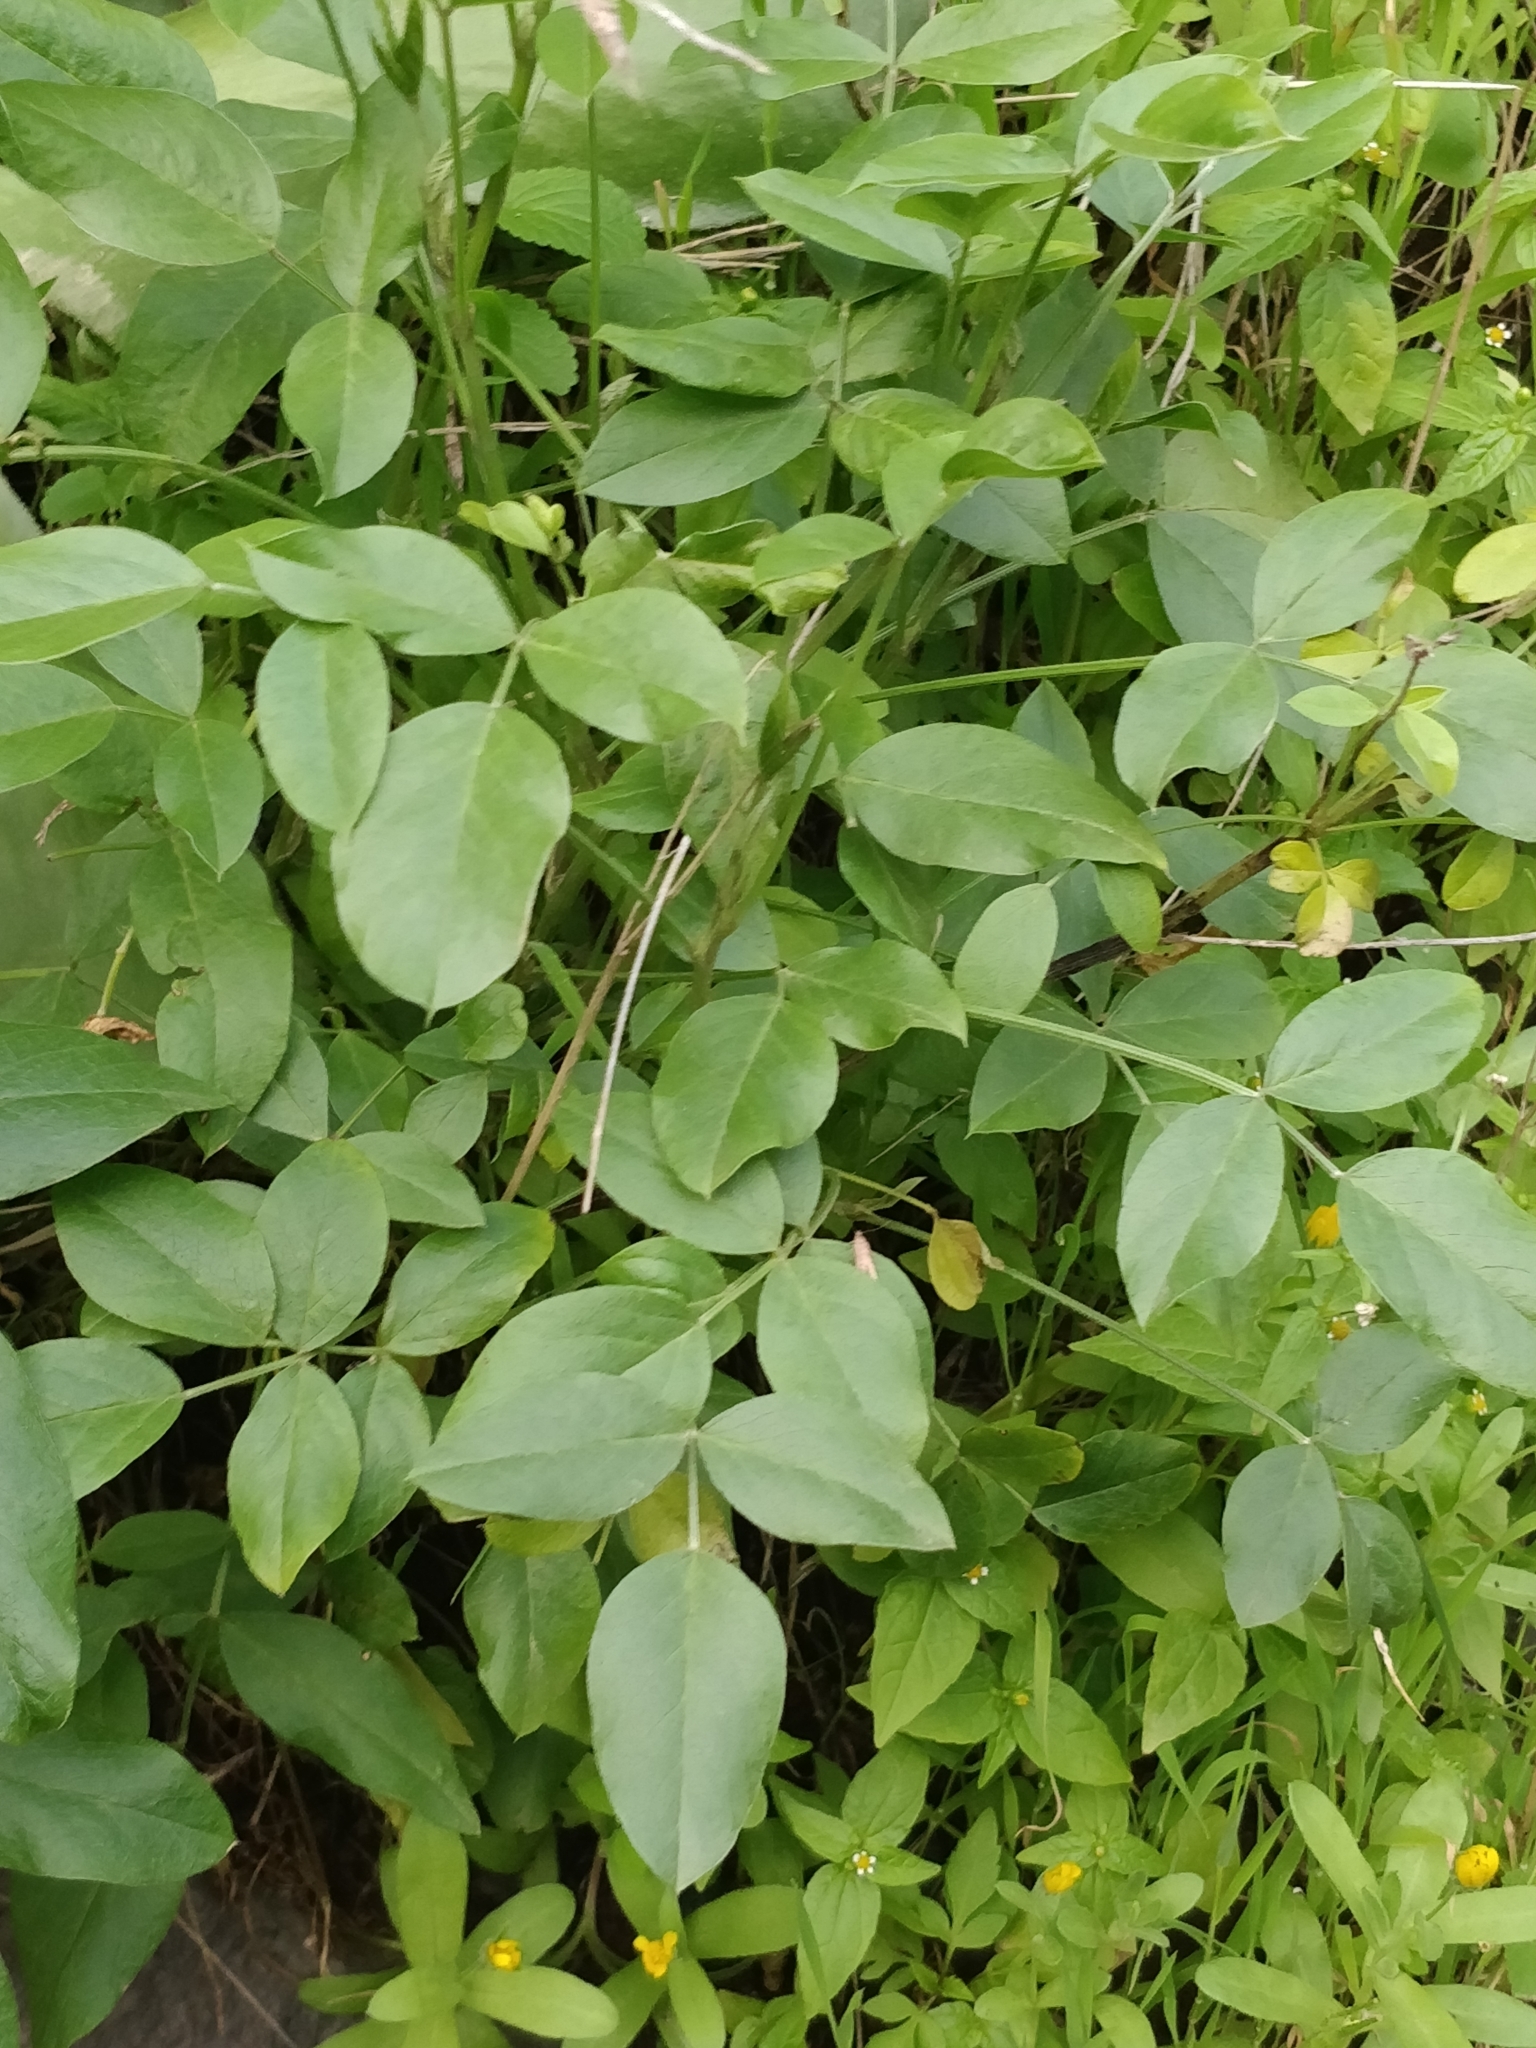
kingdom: Plantae
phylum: Tracheophyta
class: Magnoliopsida
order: Fabales
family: Fabaceae
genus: Bituminaria
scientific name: Bituminaria bituminosa
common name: Arabian pea
